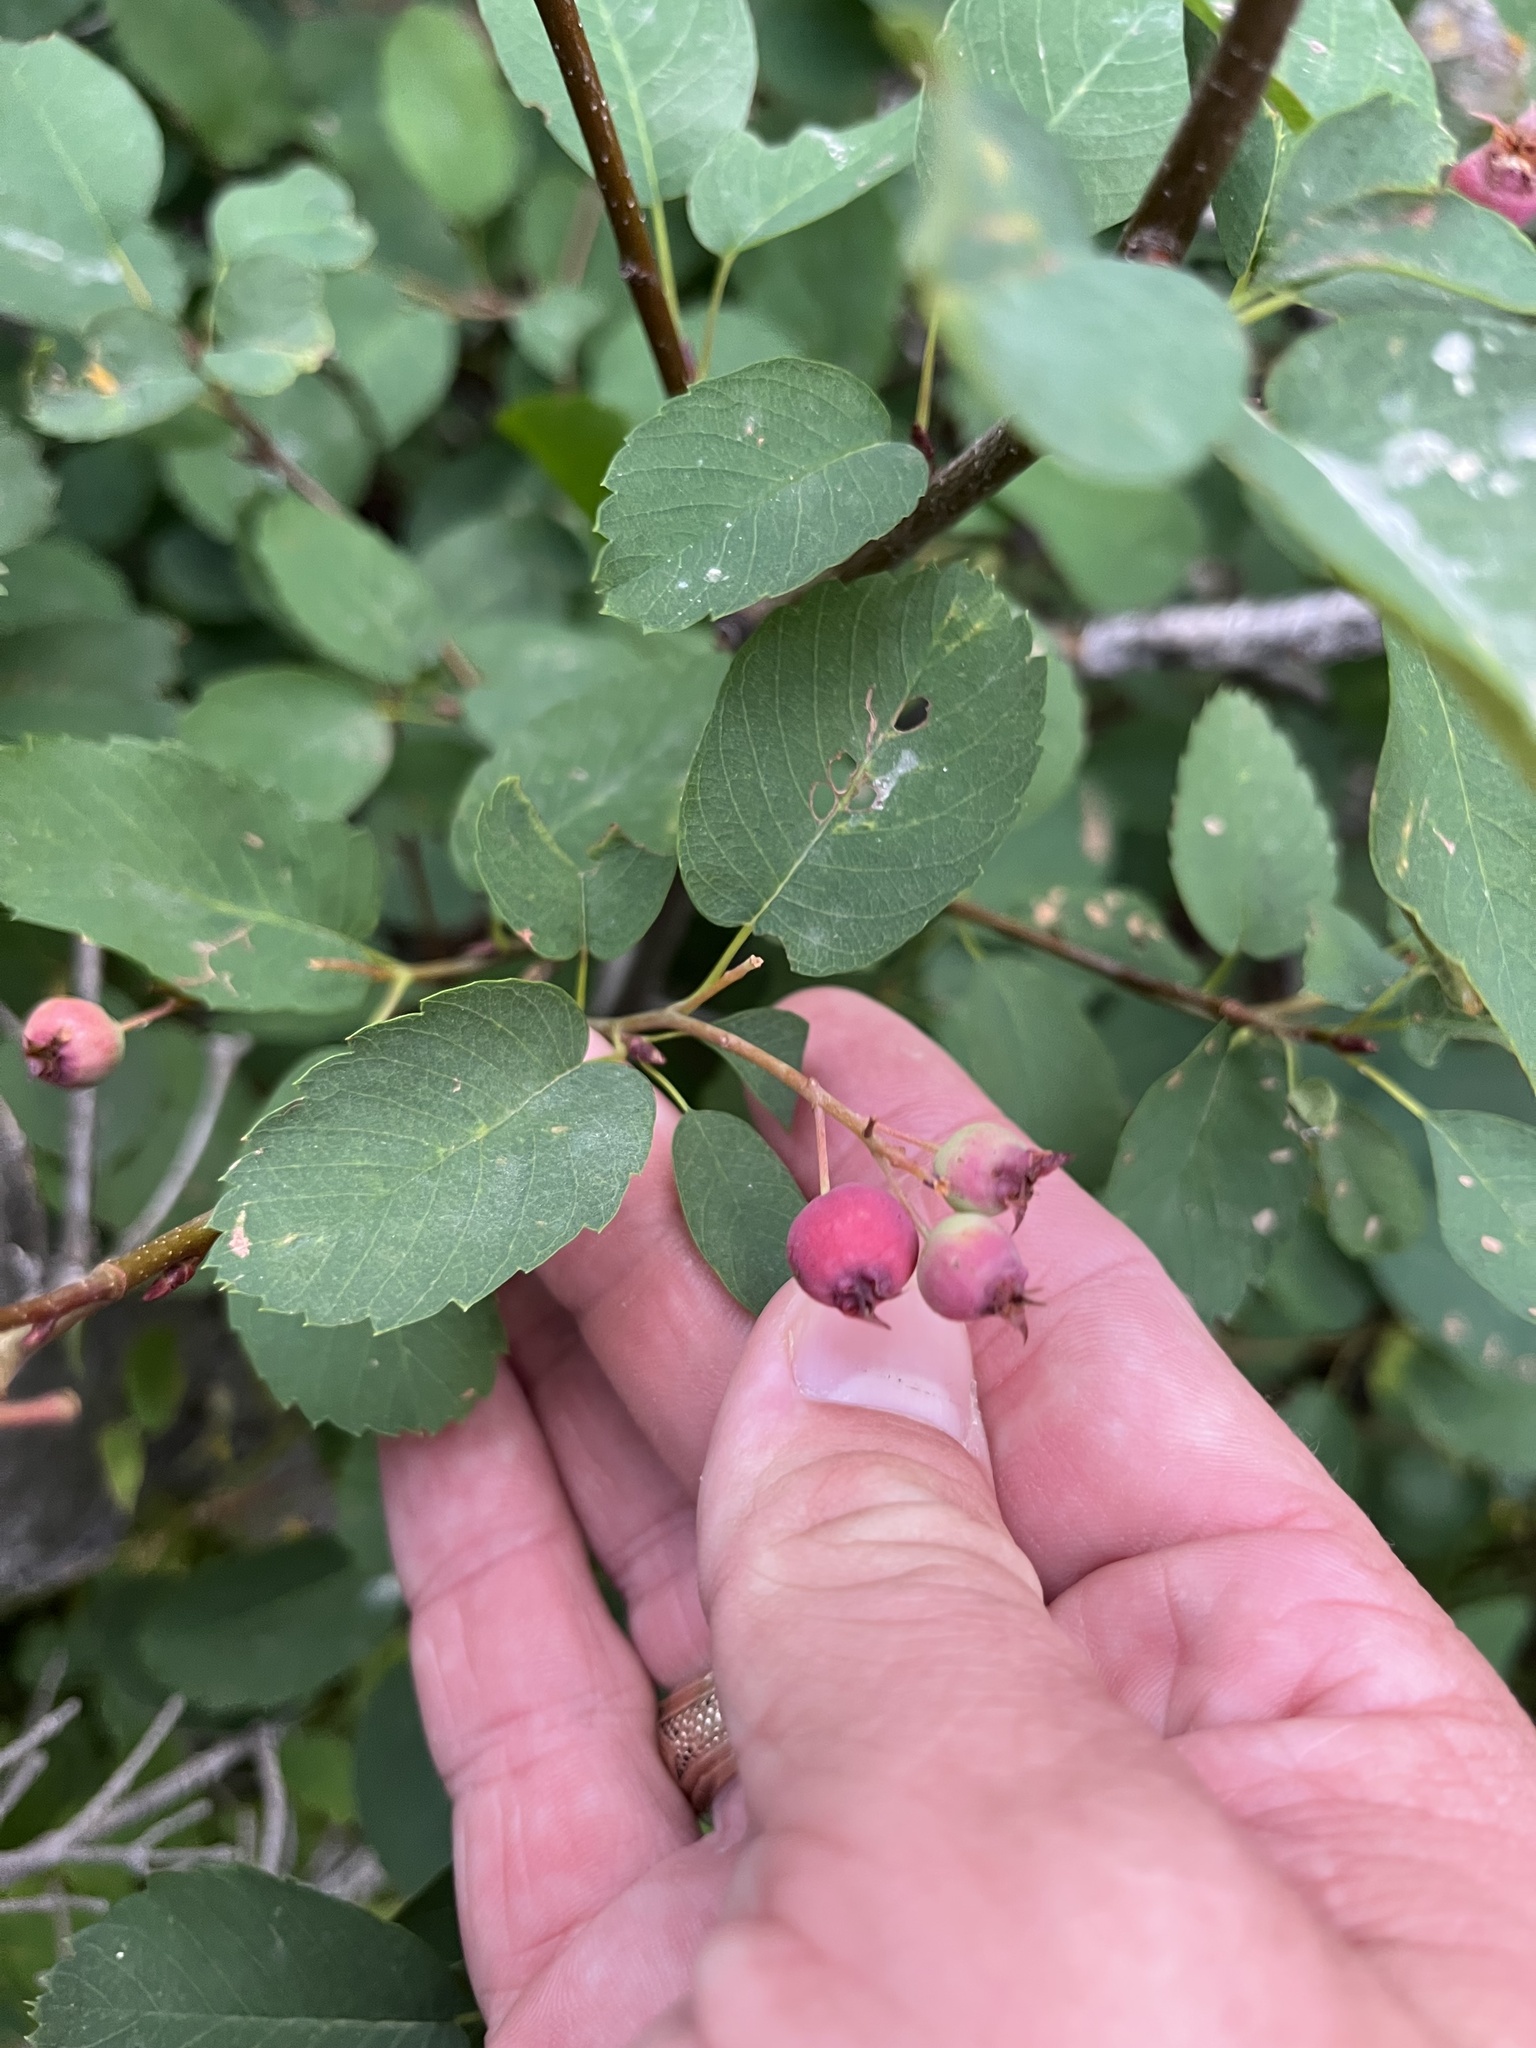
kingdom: Plantae
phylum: Tracheophyta
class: Magnoliopsida
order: Rosales
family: Rosaceae
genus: Amelanchier
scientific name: Amelanchier alnifolia
